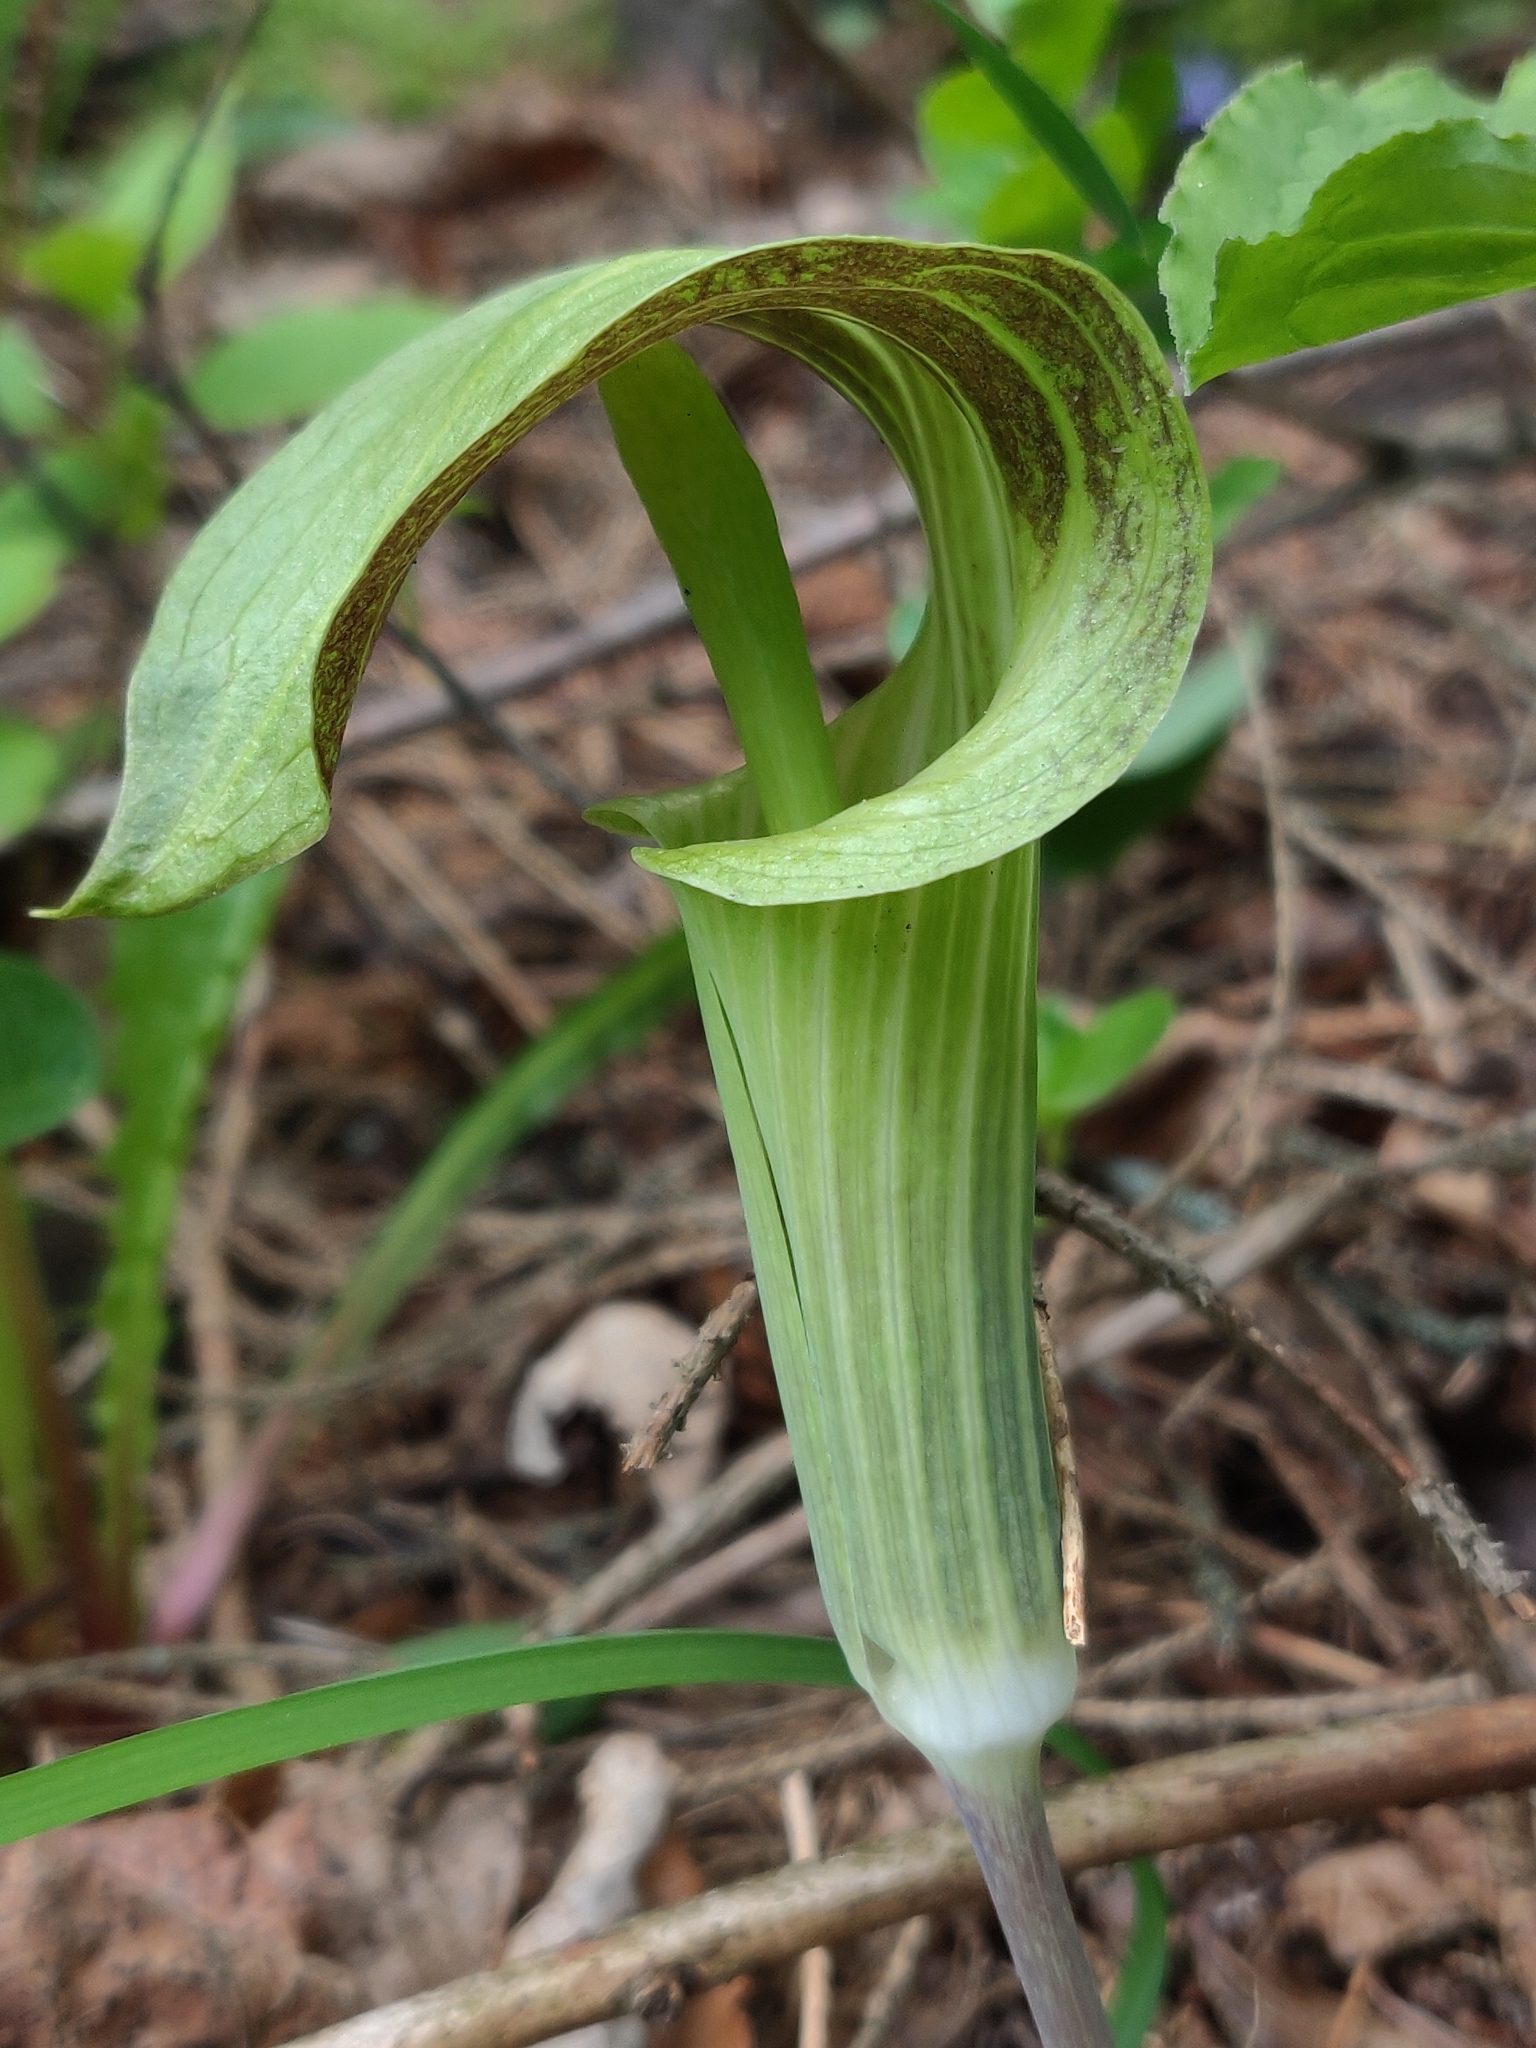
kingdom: Plantae
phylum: Tracheophyta
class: Liliopsida
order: Alismatales
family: Araceae
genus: Arisaema
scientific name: Arisaema triphyllum
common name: Jack-in-the-pulpit
